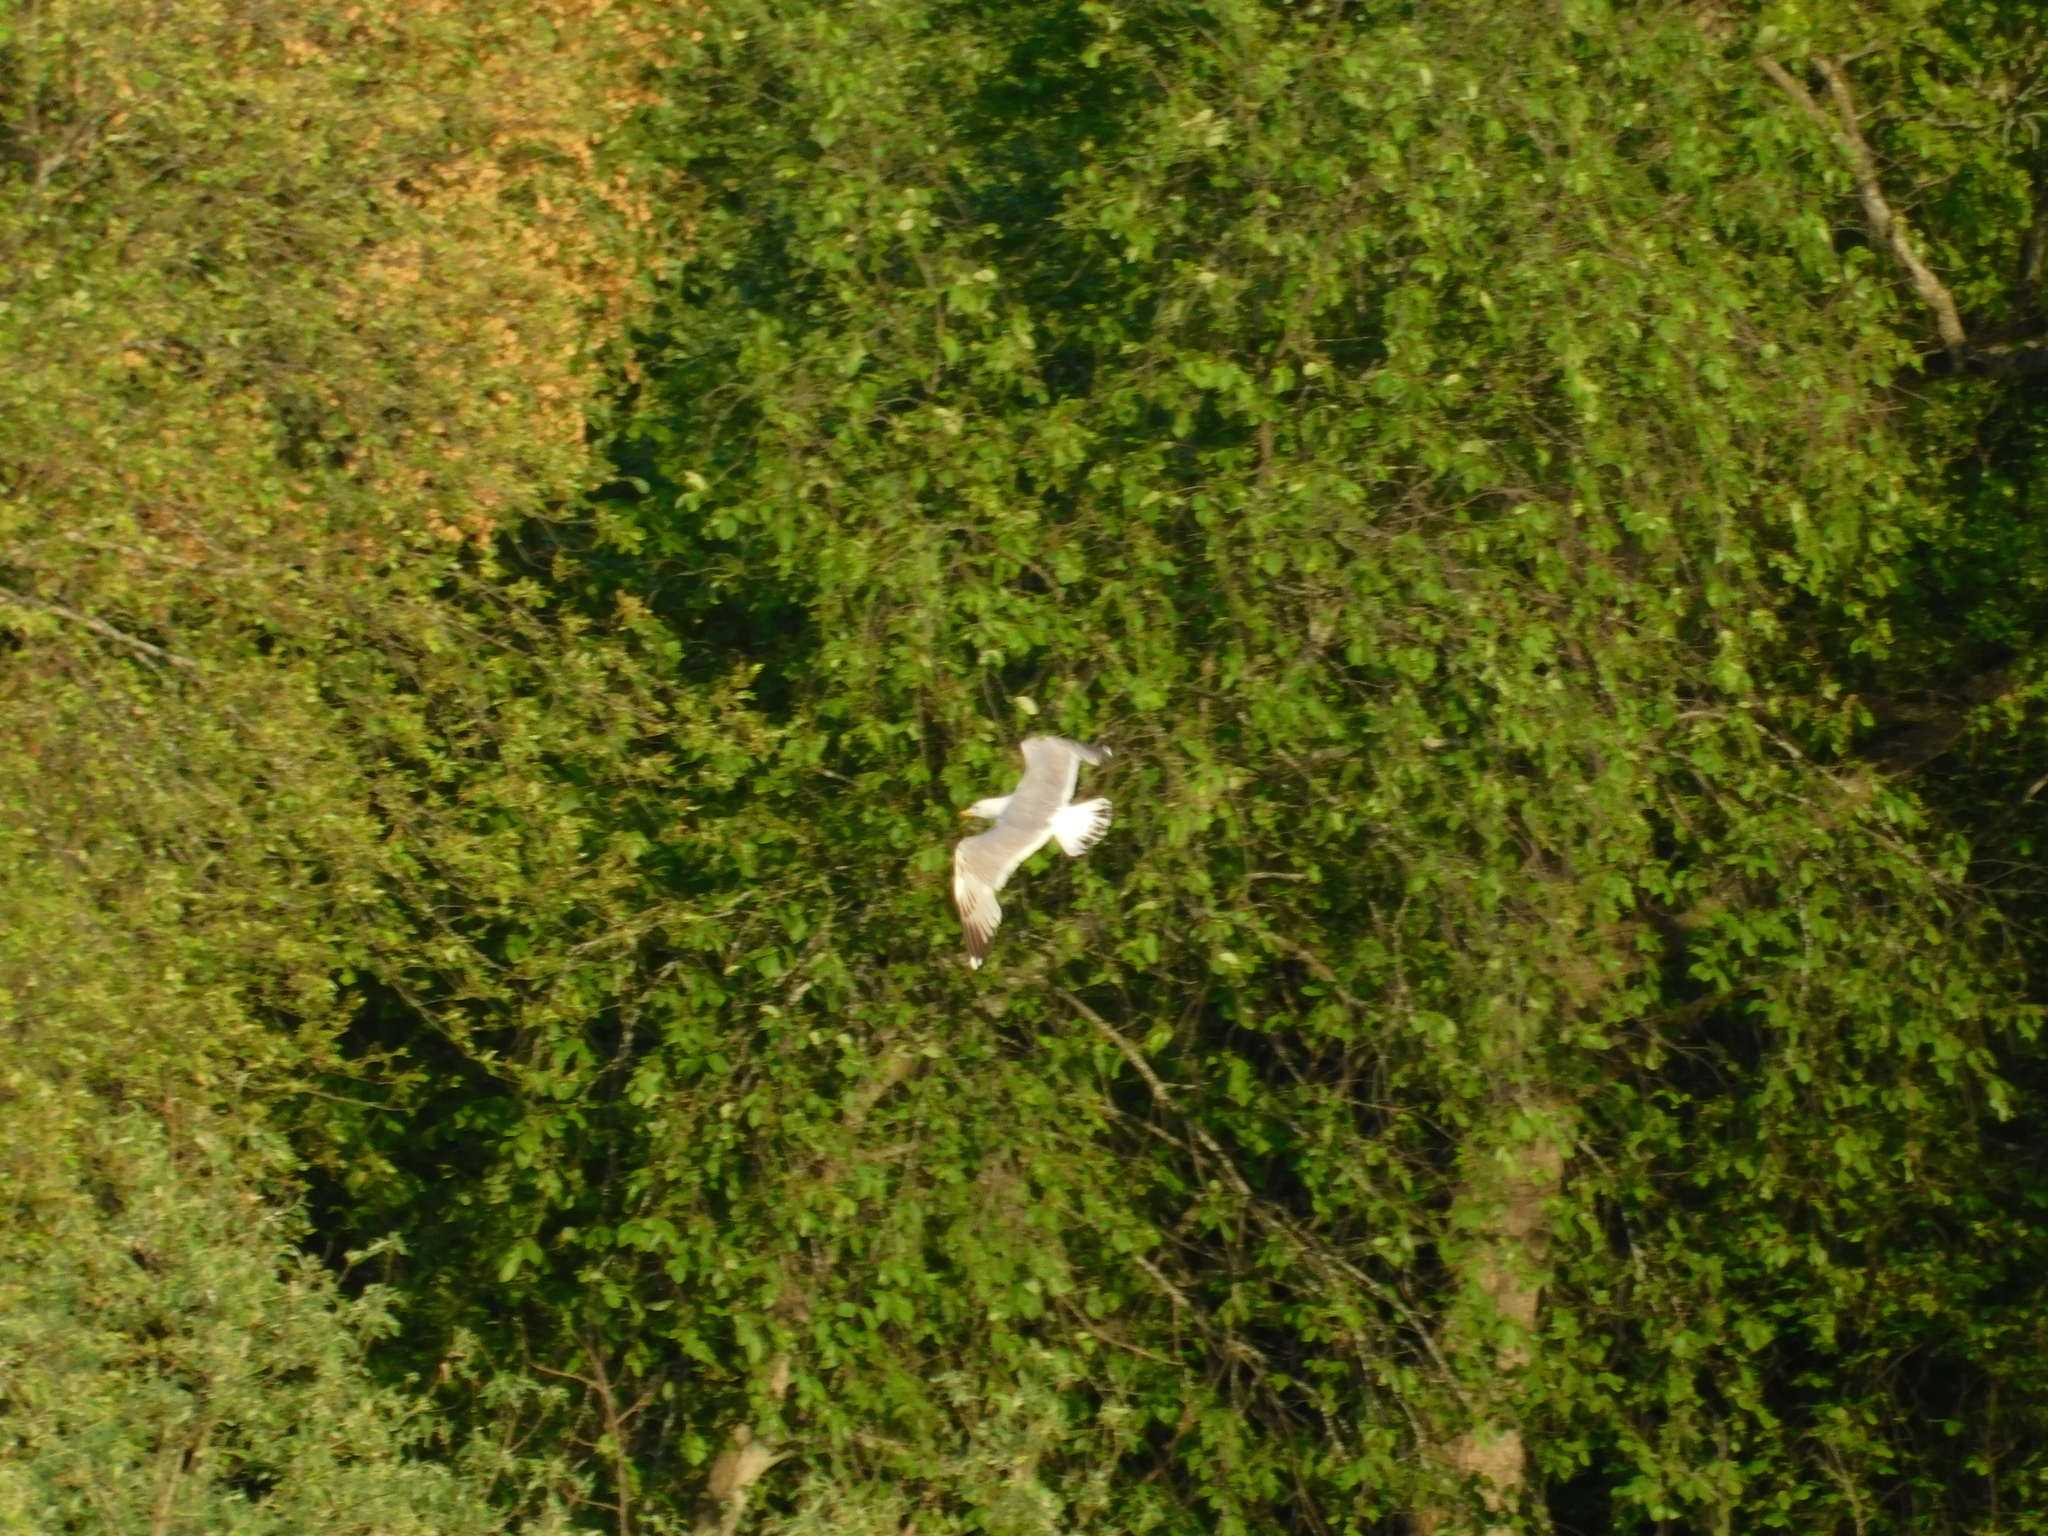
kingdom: Animalia
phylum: Chordata
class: Aves
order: Charadriiformes
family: Laridae
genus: Larus
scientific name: Larus fuscus
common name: Lesser black-backed gull
